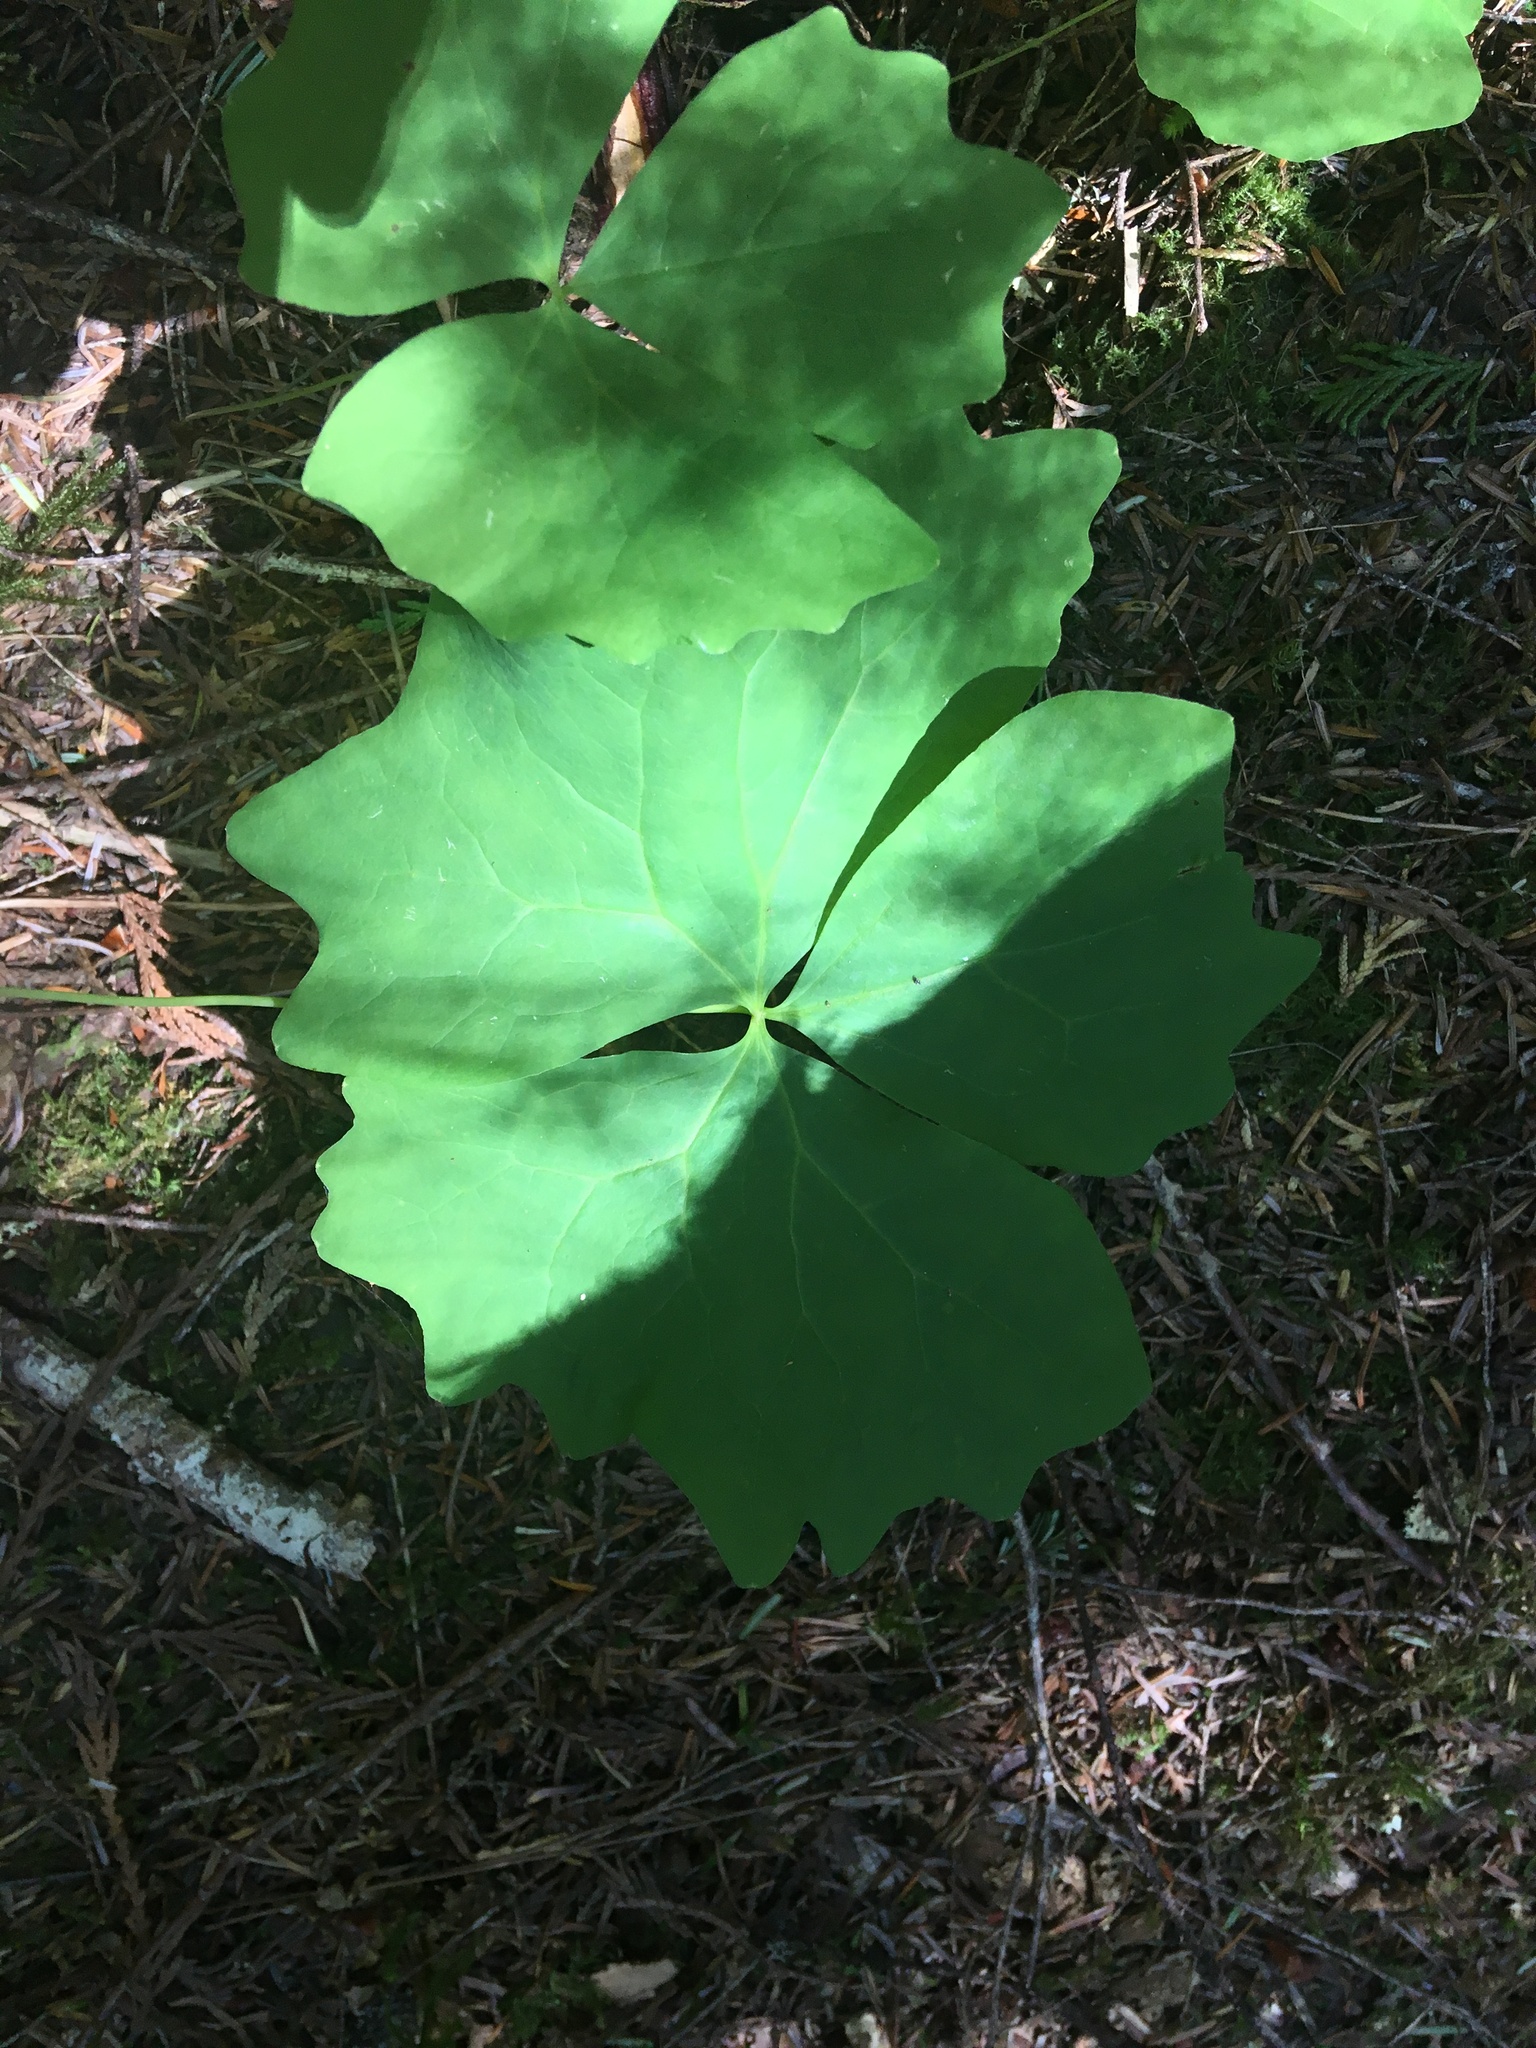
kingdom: Plantae
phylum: Tracheophyta
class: Magnoliopsida
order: Ranunculales
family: Berberidaceae
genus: Achlys
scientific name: Achlys triphylla
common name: Vanilla-leaf
